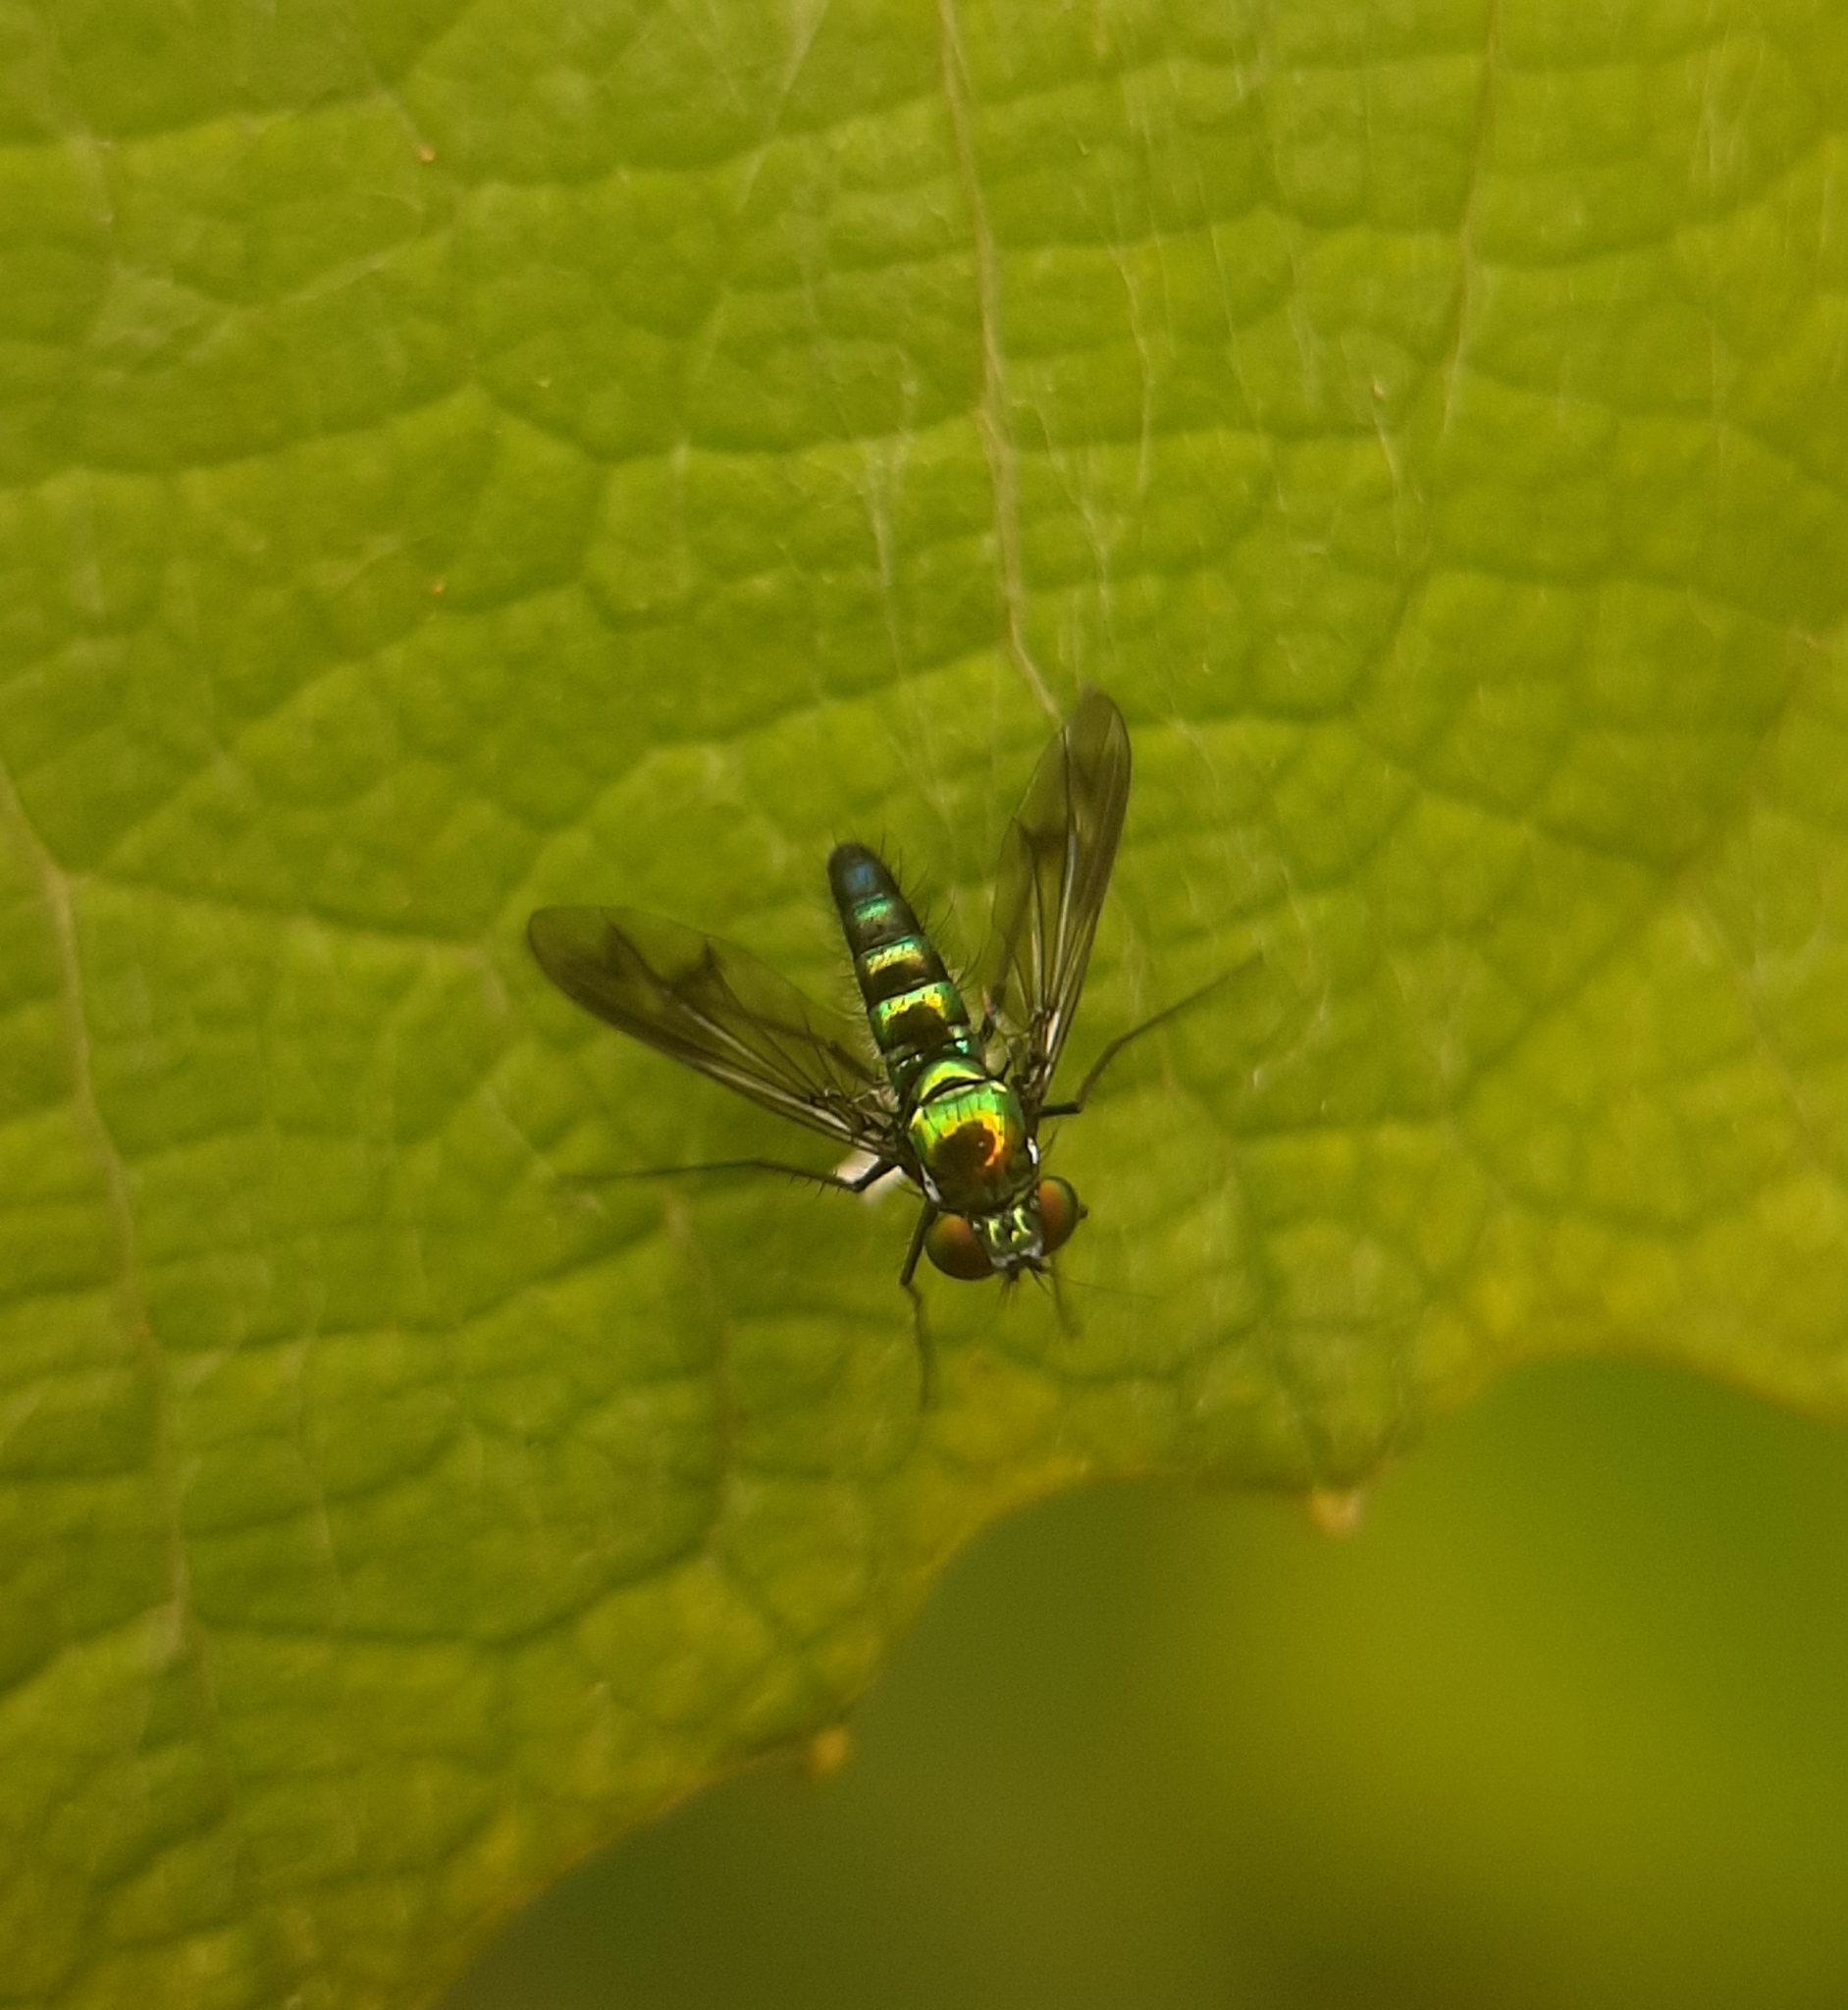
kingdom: Animalia
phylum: Arthropoda
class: Insecta
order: Diptera
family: Dolichopodidae
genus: Condylostylus
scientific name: Condylostylus patibulatus
